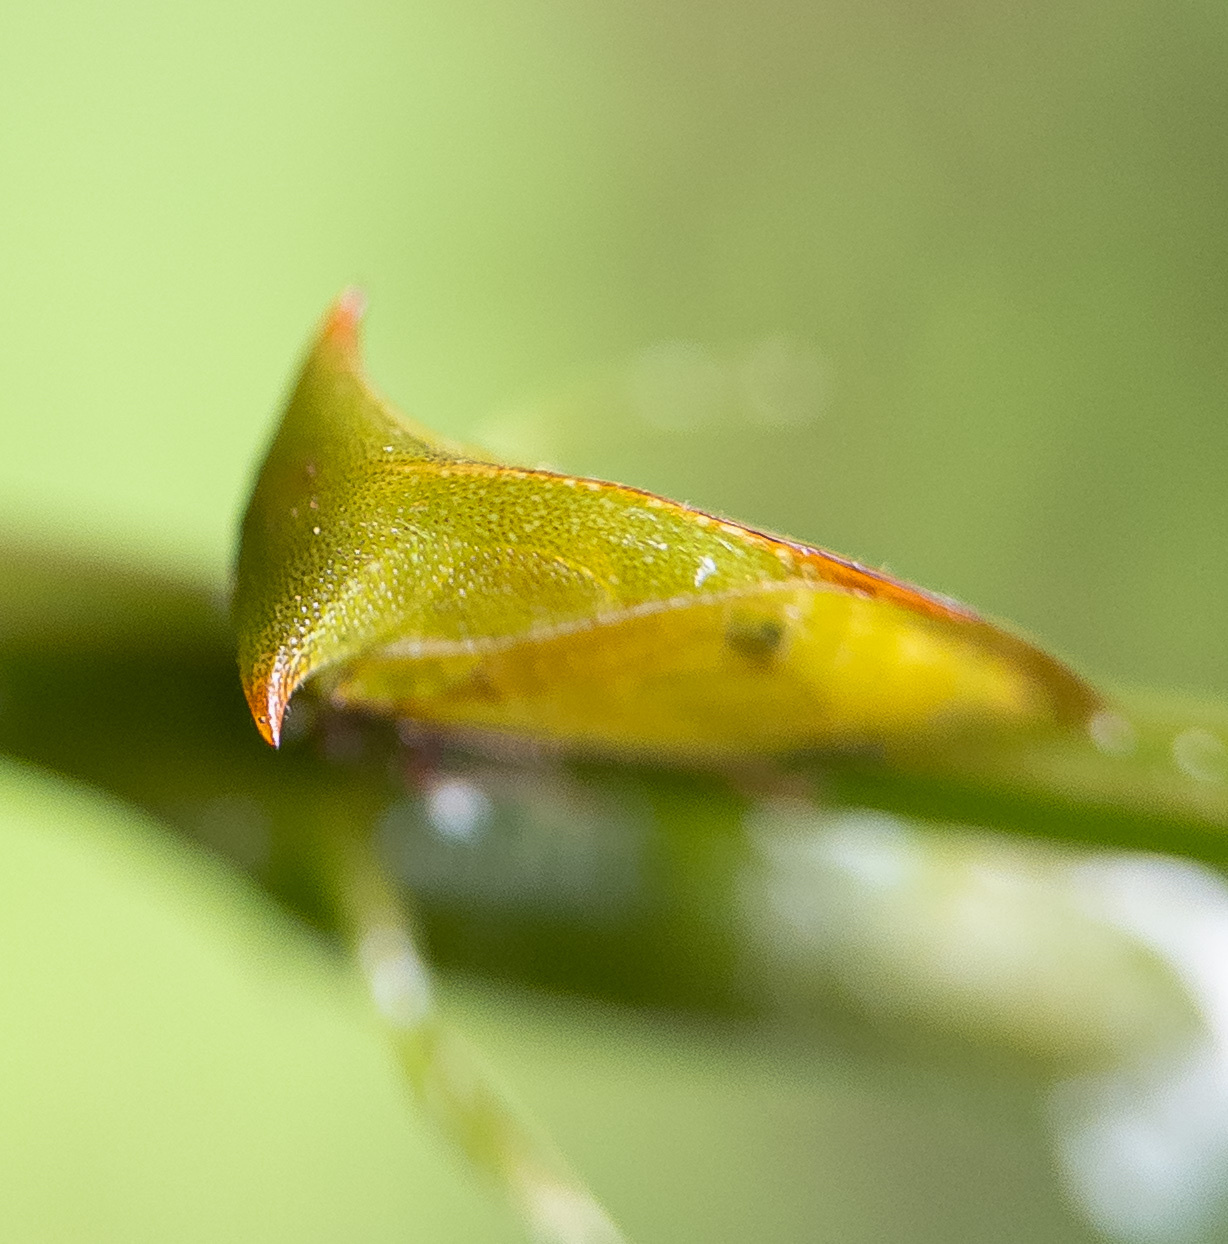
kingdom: Animalia
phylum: Arthropoda
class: Insecta
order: Hemiptera
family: Membracidae
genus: Stictocephala
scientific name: Stictocephala brevitylus
